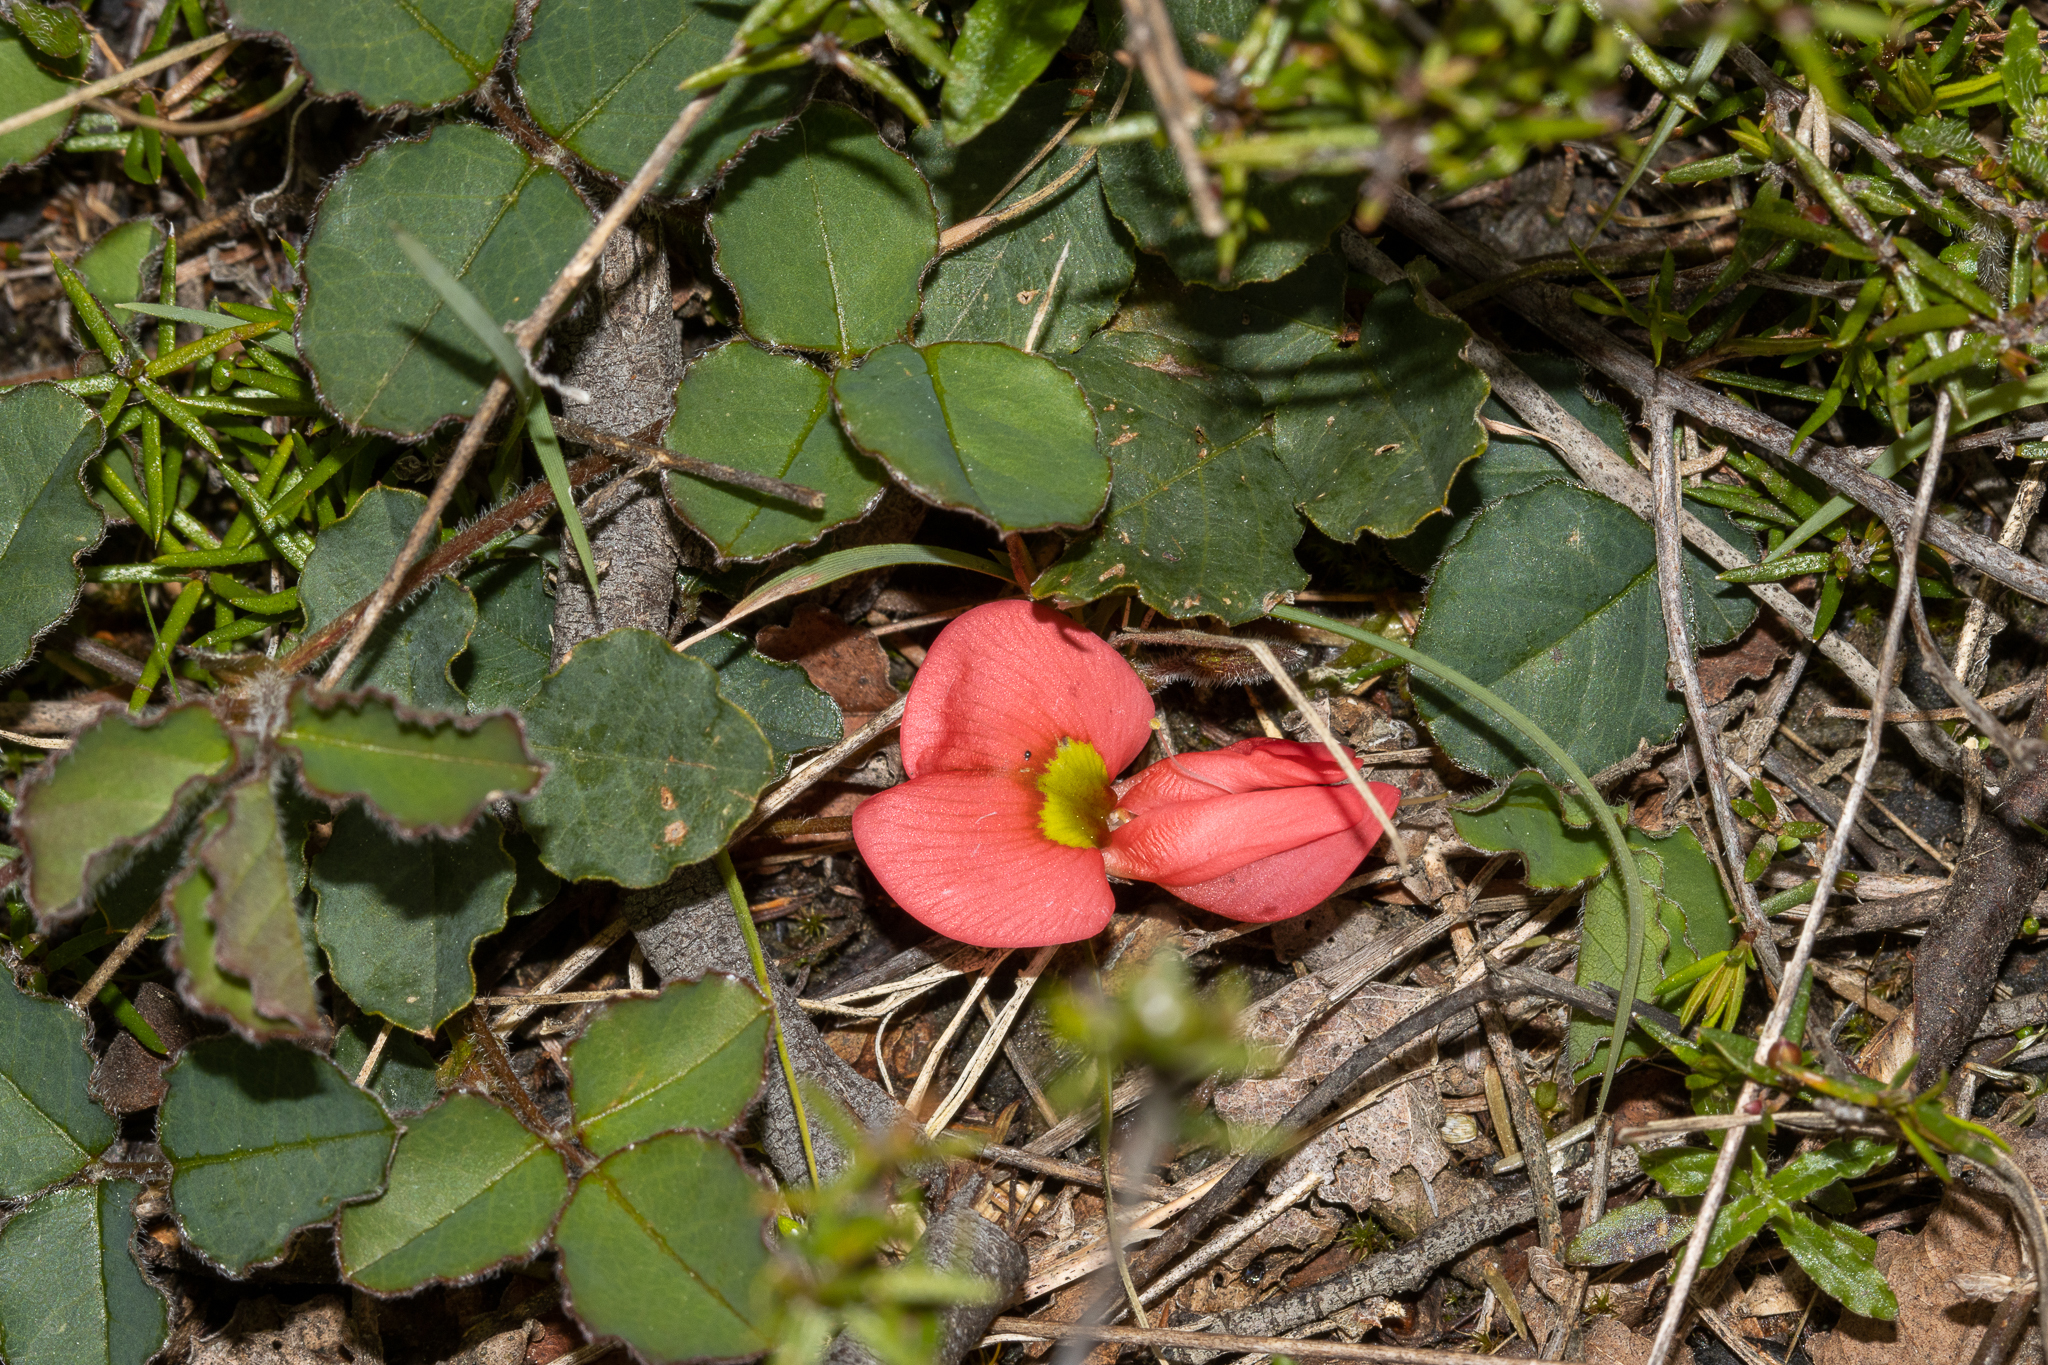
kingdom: Plantae
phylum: Tracheophyta
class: Magnoliopsida
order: Fabales
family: Fabaceae
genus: Kennedia
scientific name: Kennedia prostrata
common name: Running-postman
